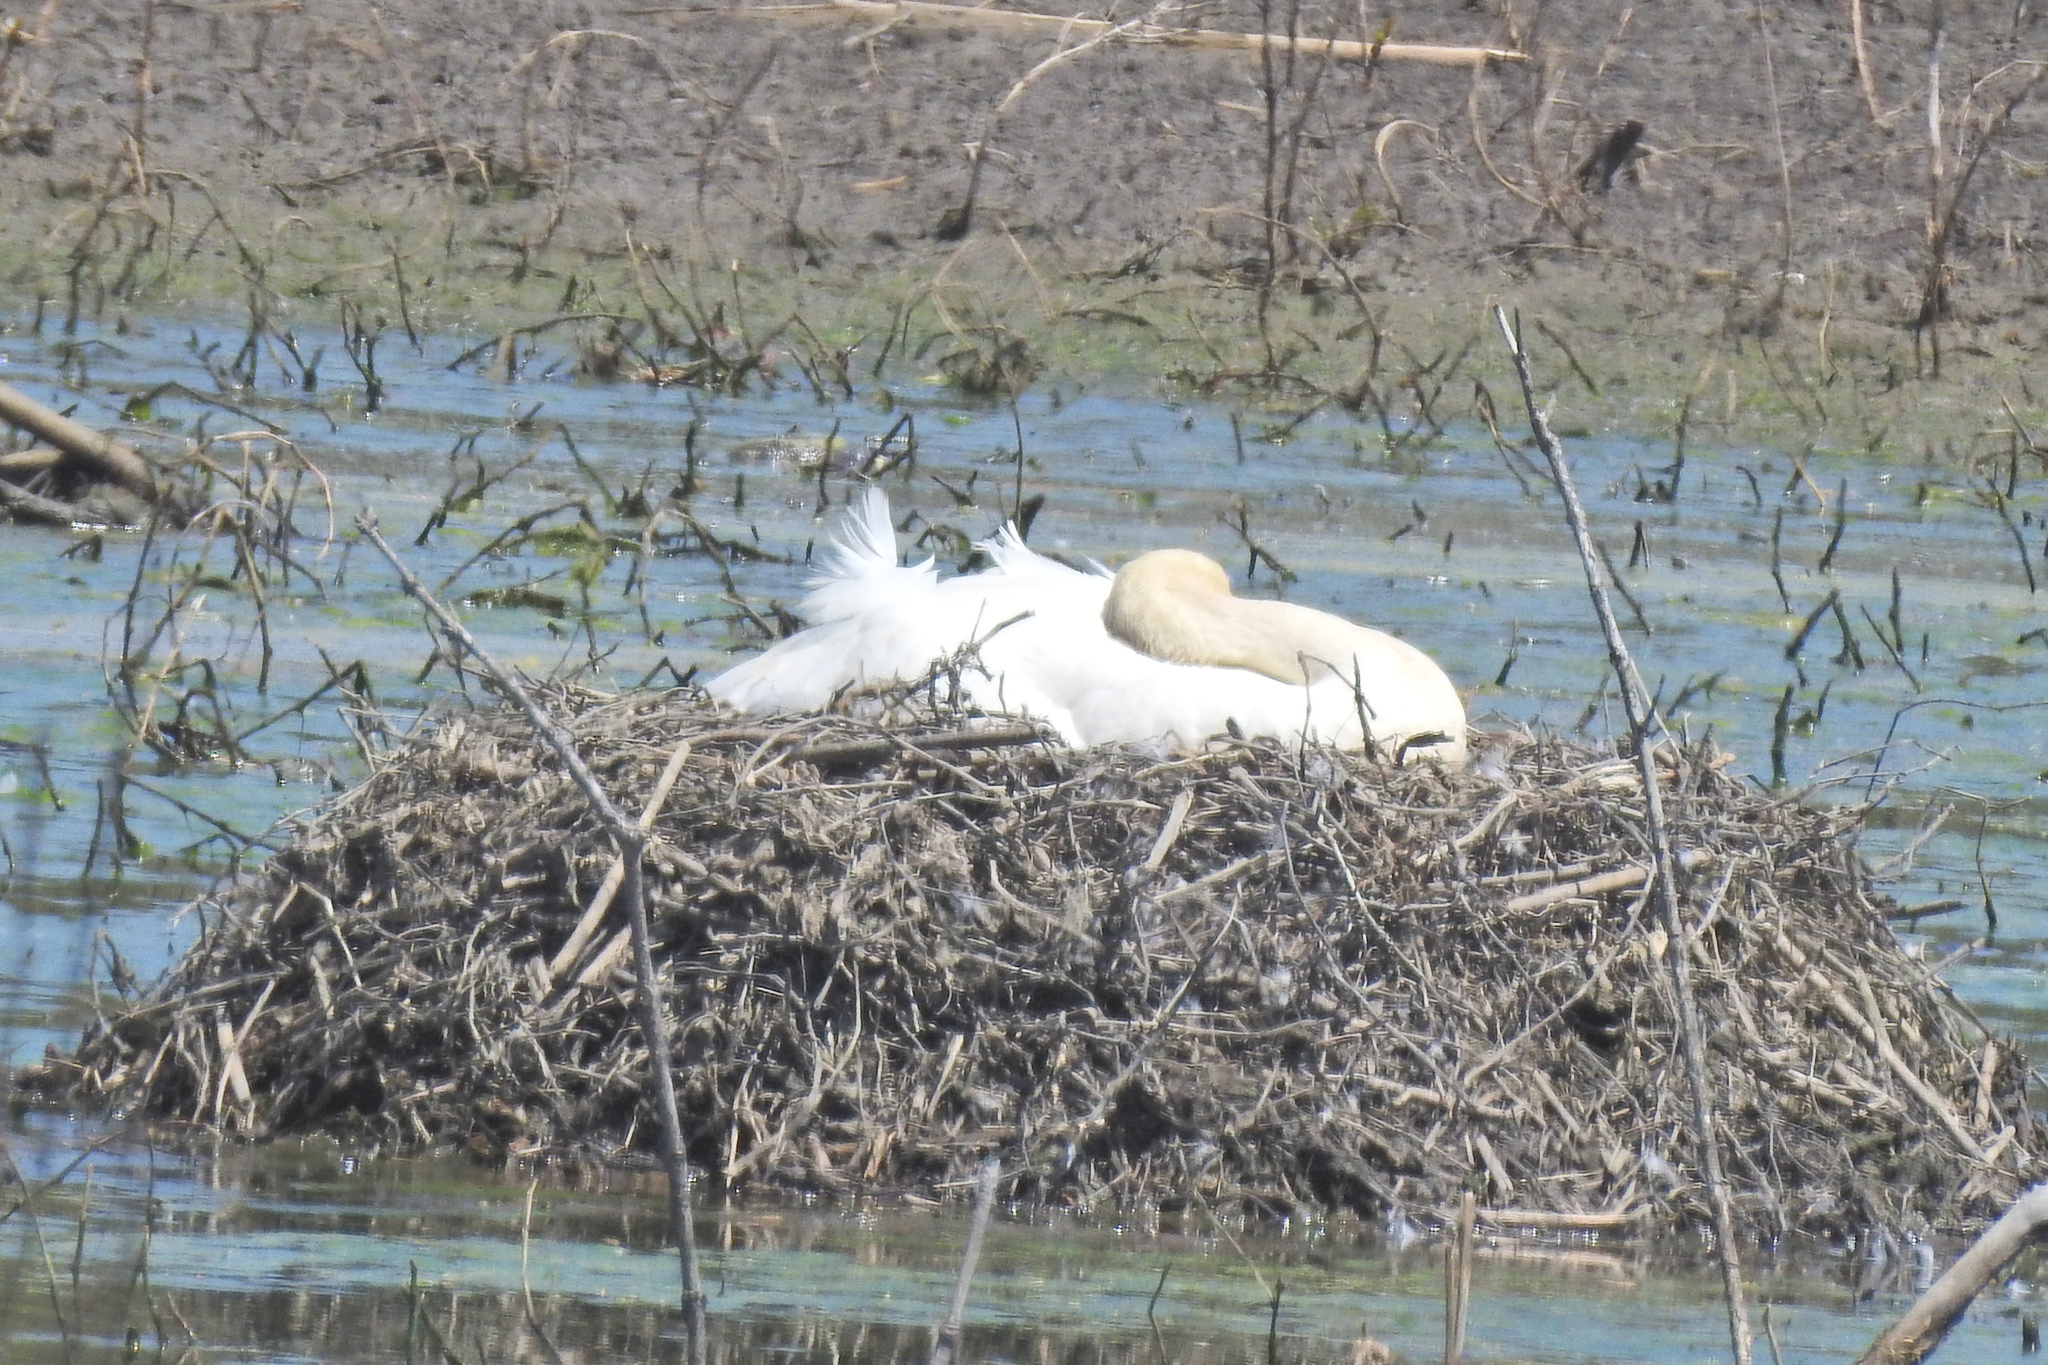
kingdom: Animalia
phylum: Chordata
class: Aves
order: Anseriformes
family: Anatidae
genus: Cygnus
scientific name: Cygnus olor
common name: Mute swan
